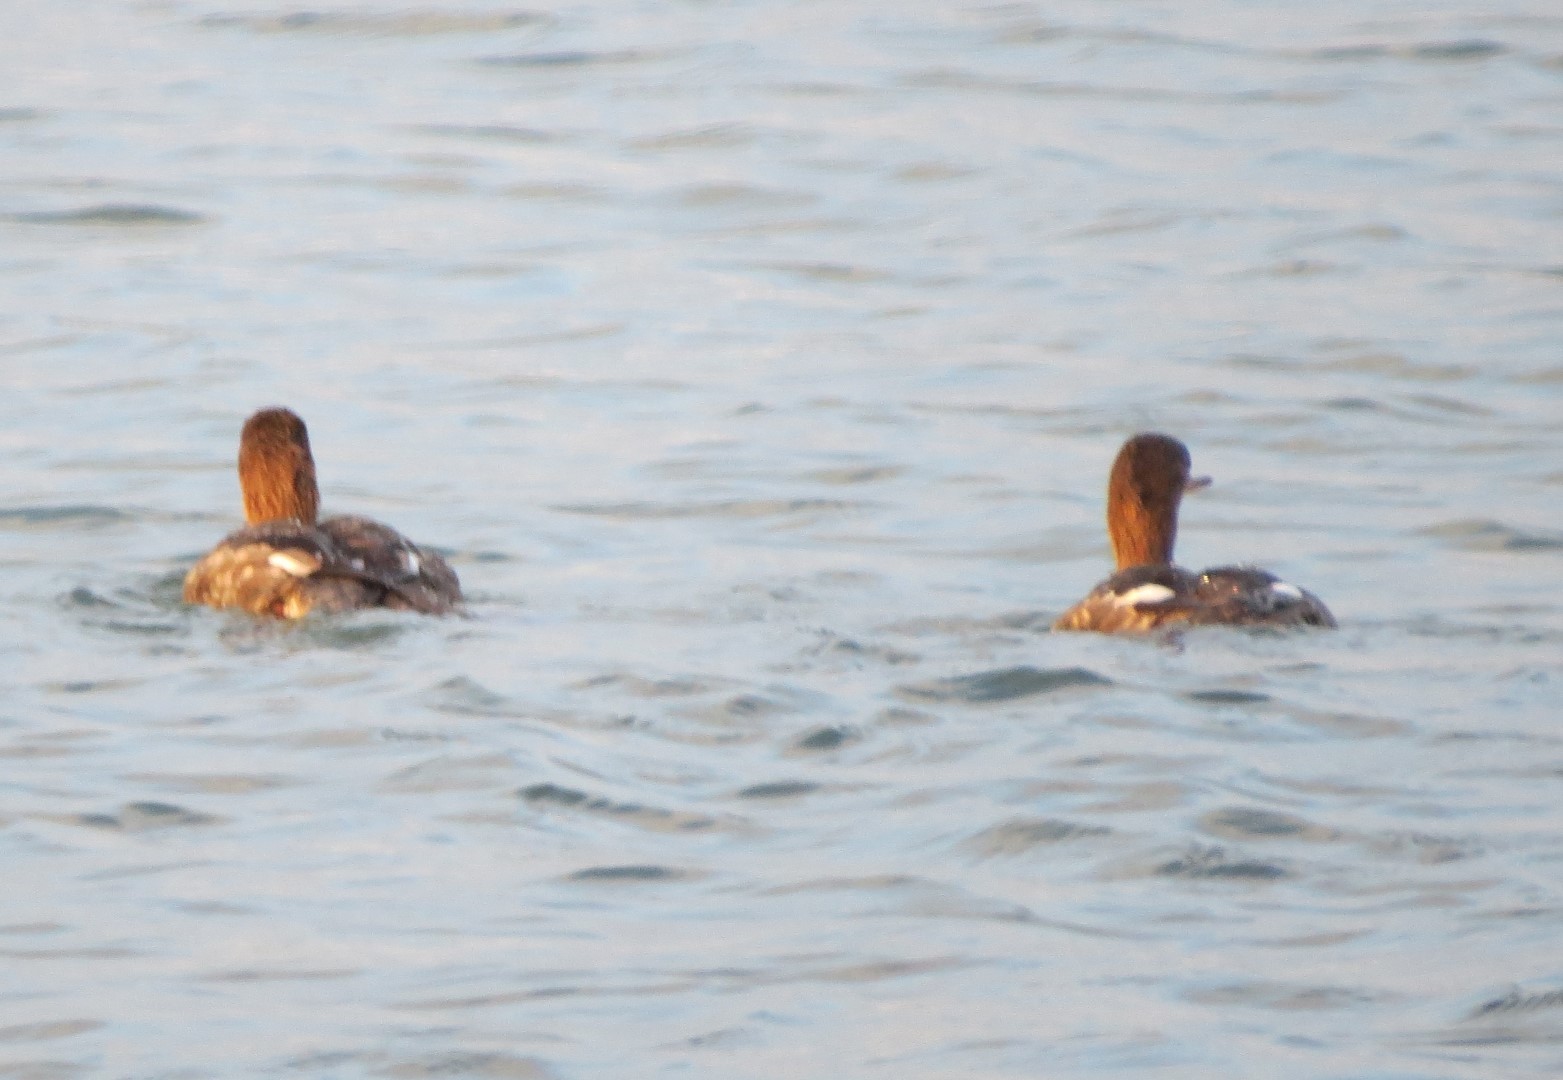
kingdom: Animalia
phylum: Chordata
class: Aves
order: Anseriformes
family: Anatidae
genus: Mergus
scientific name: Mergus serrator
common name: Red-breasted merganser
